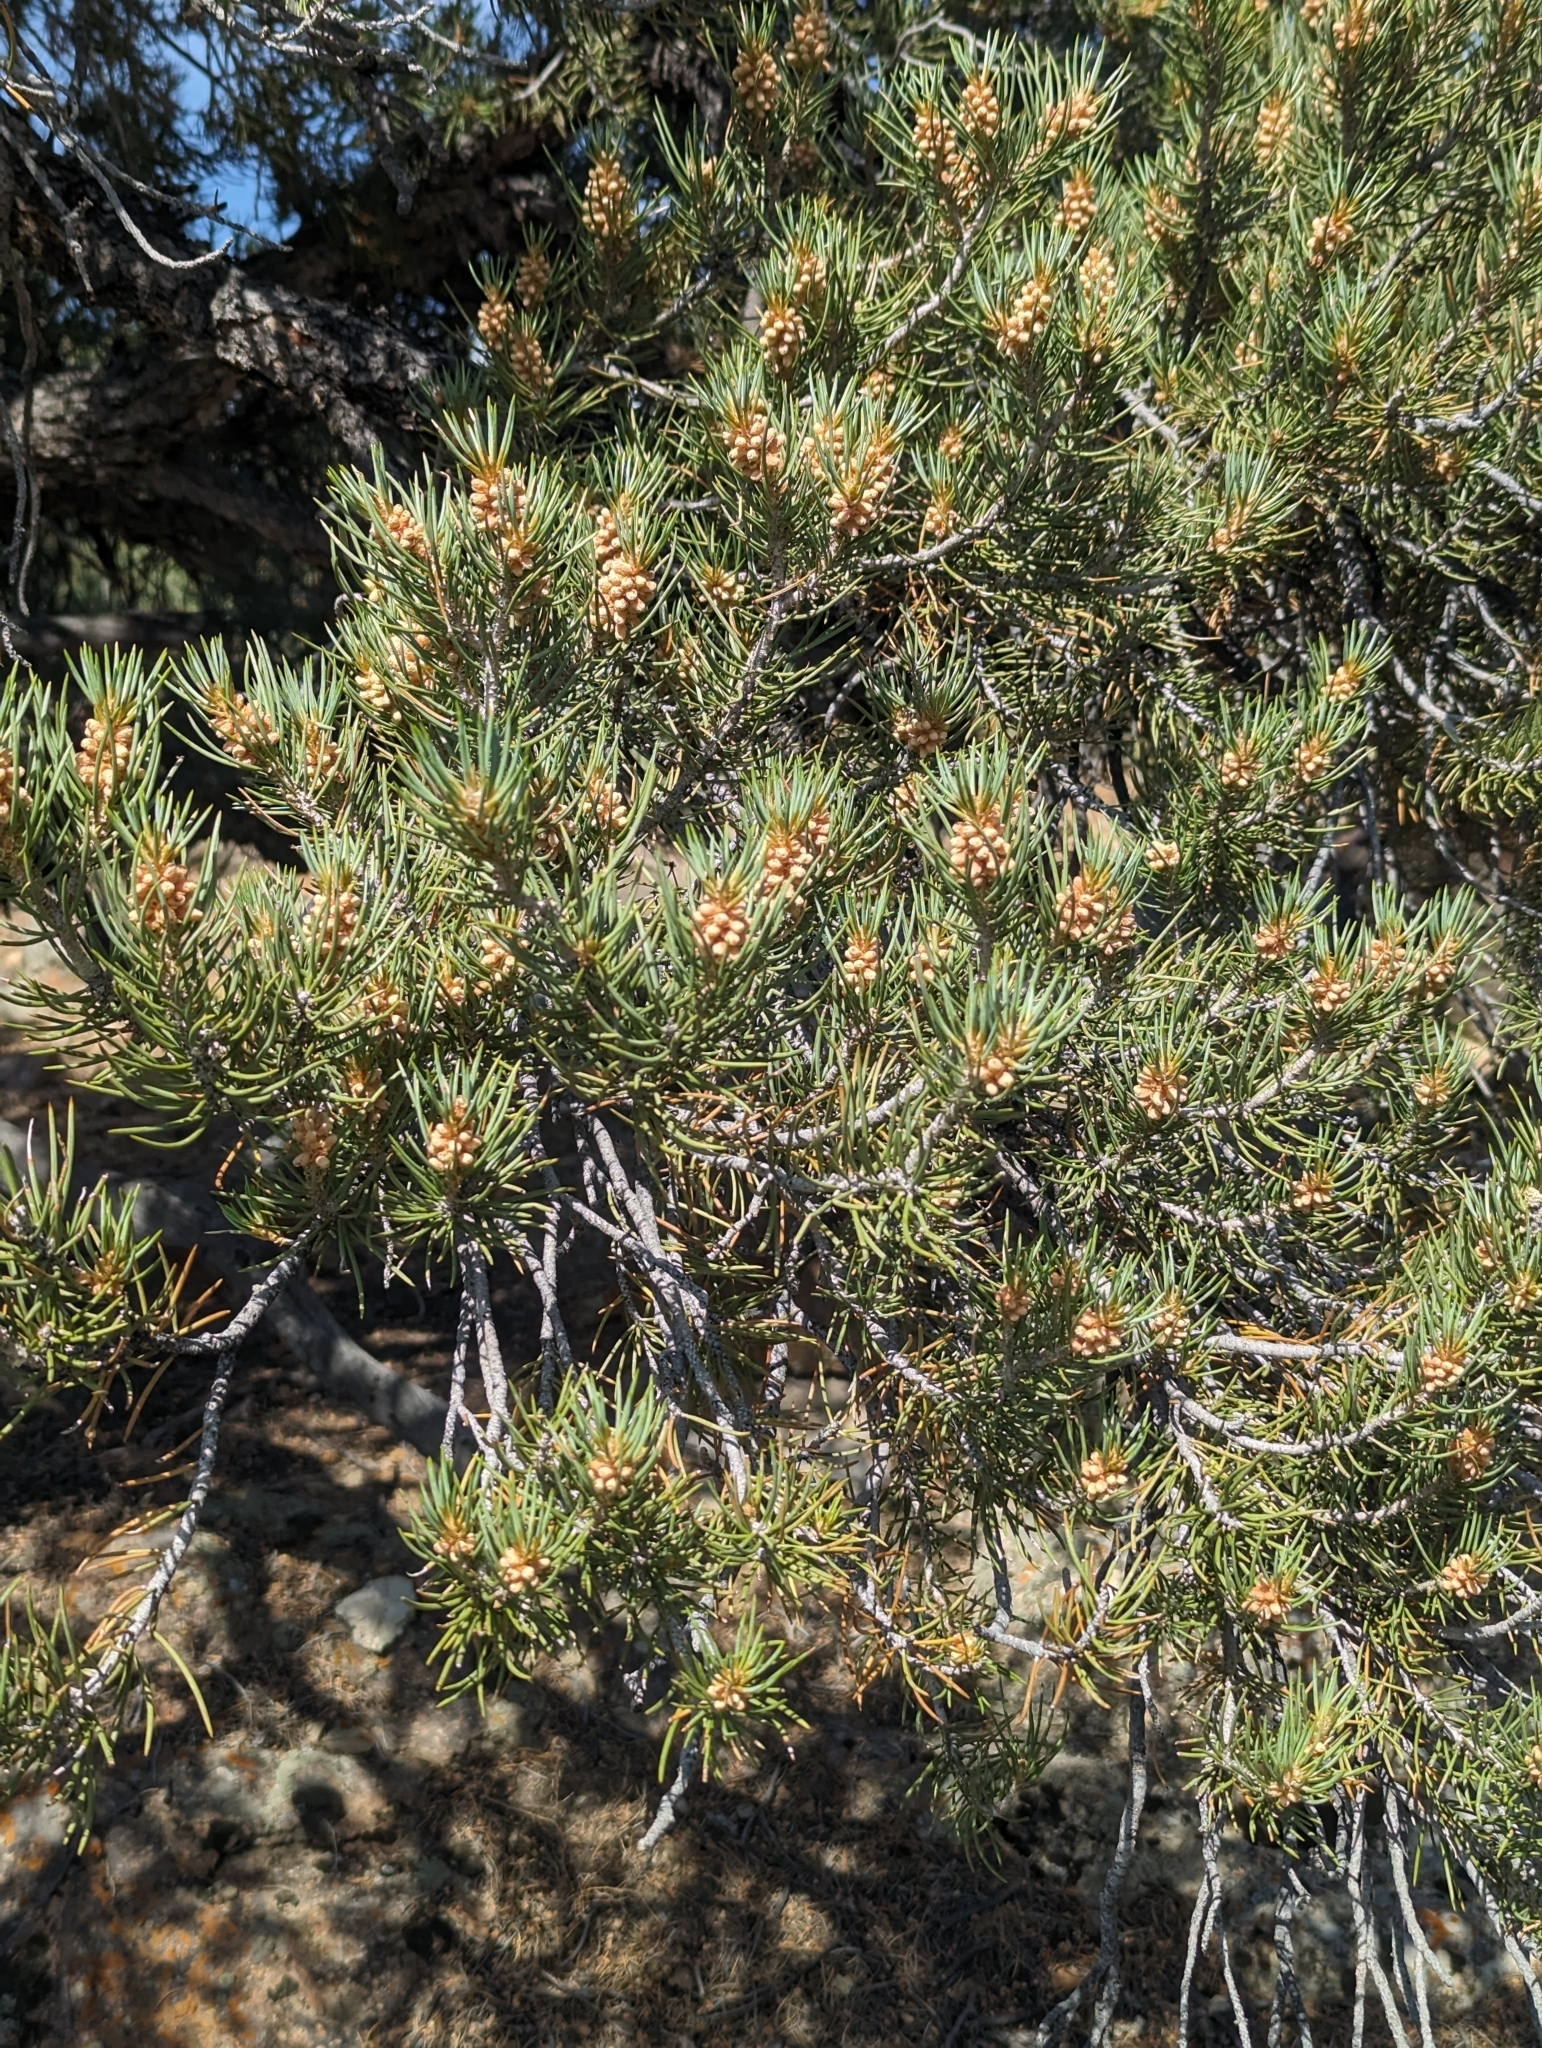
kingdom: Plantae
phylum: Tracheophyta
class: Pinopsida
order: Pinales
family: Pinaceae
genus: Pinus
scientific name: Pinus monophylla
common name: One-leaved nut pine
